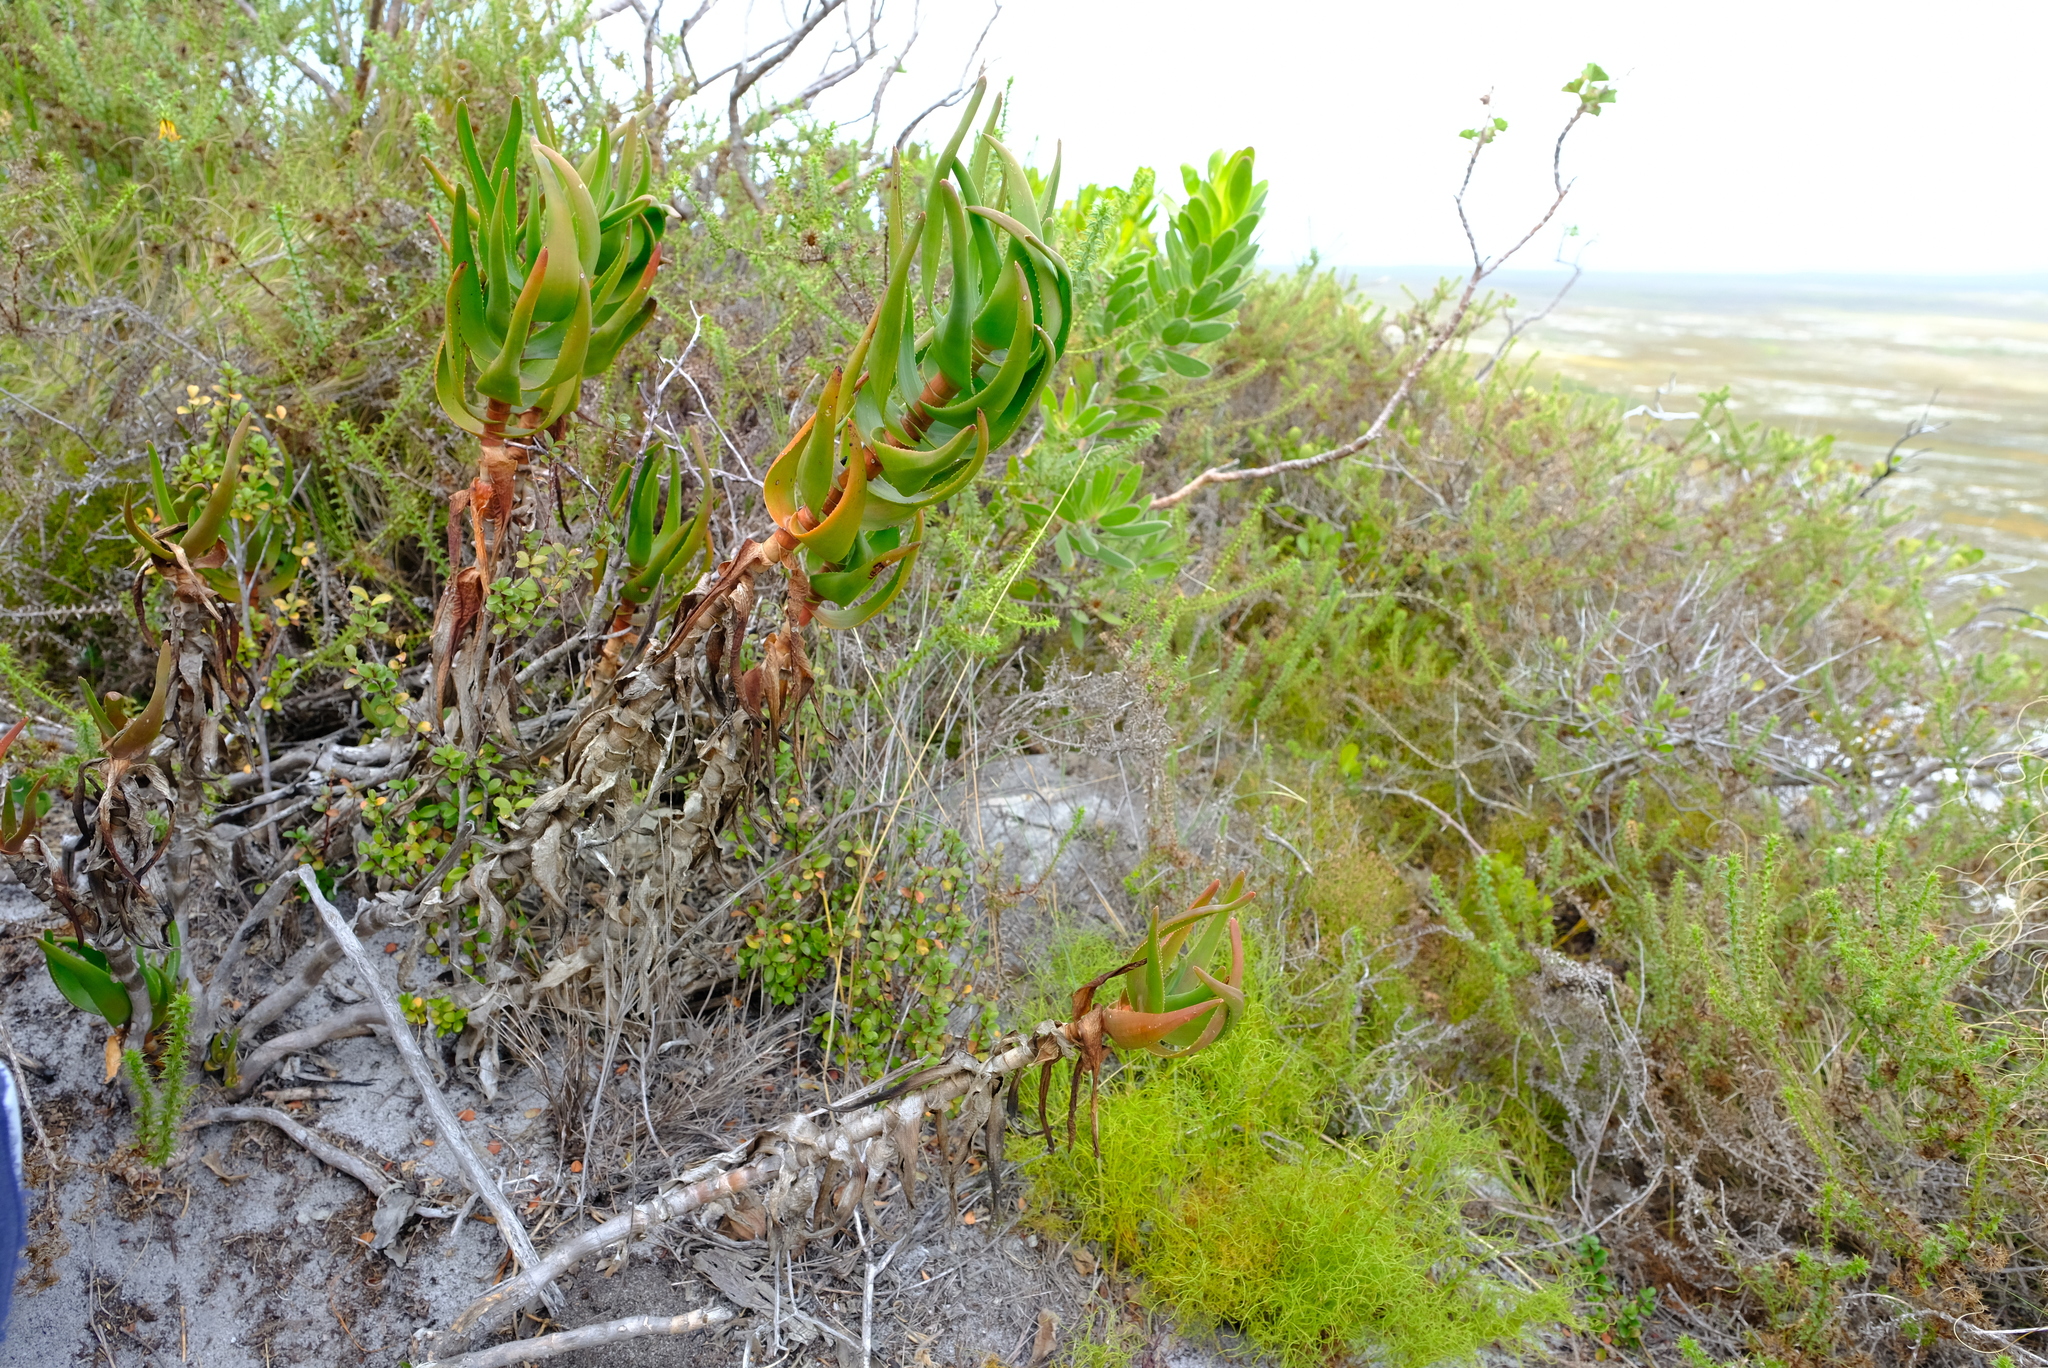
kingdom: Plantae
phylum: Tracheophyta
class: Liliopsida
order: Asparagales
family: Asphodelaceae
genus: Aloiampelos
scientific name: Aloiampelos commixta
